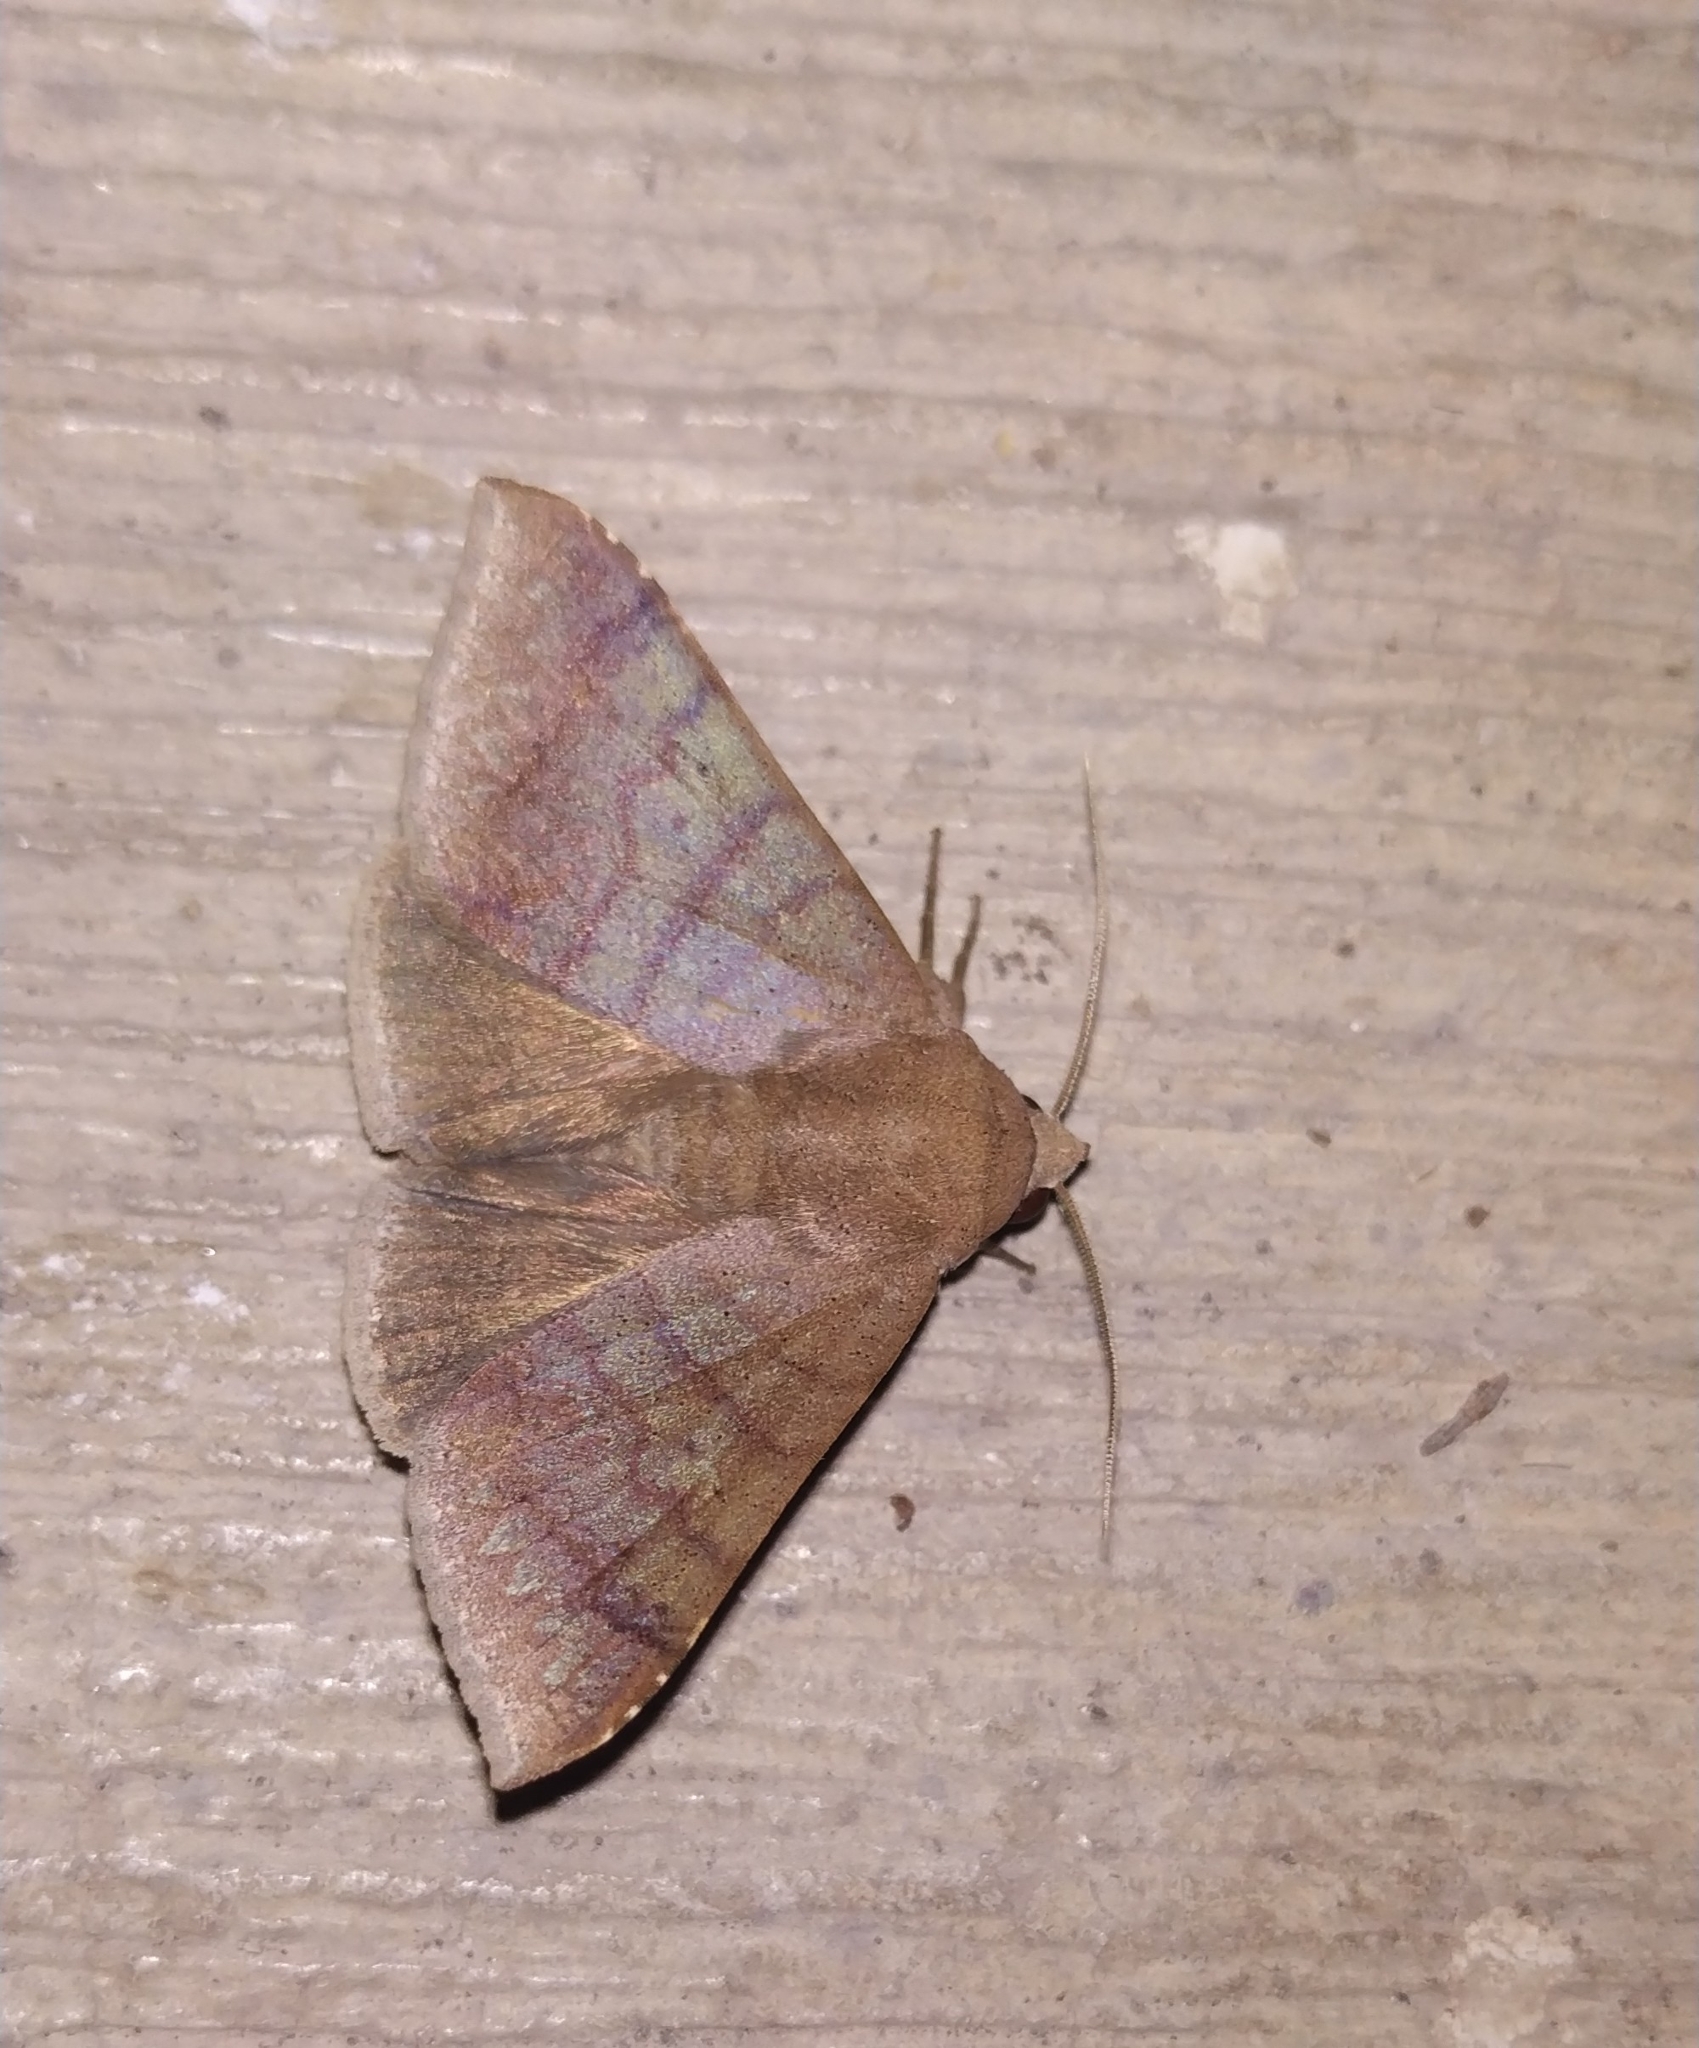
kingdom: Animalia
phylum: Arthropoda
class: Insecta
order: Lepidoptera
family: Erebidae
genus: Achaea
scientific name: Achaea Mimophisma delunaris
